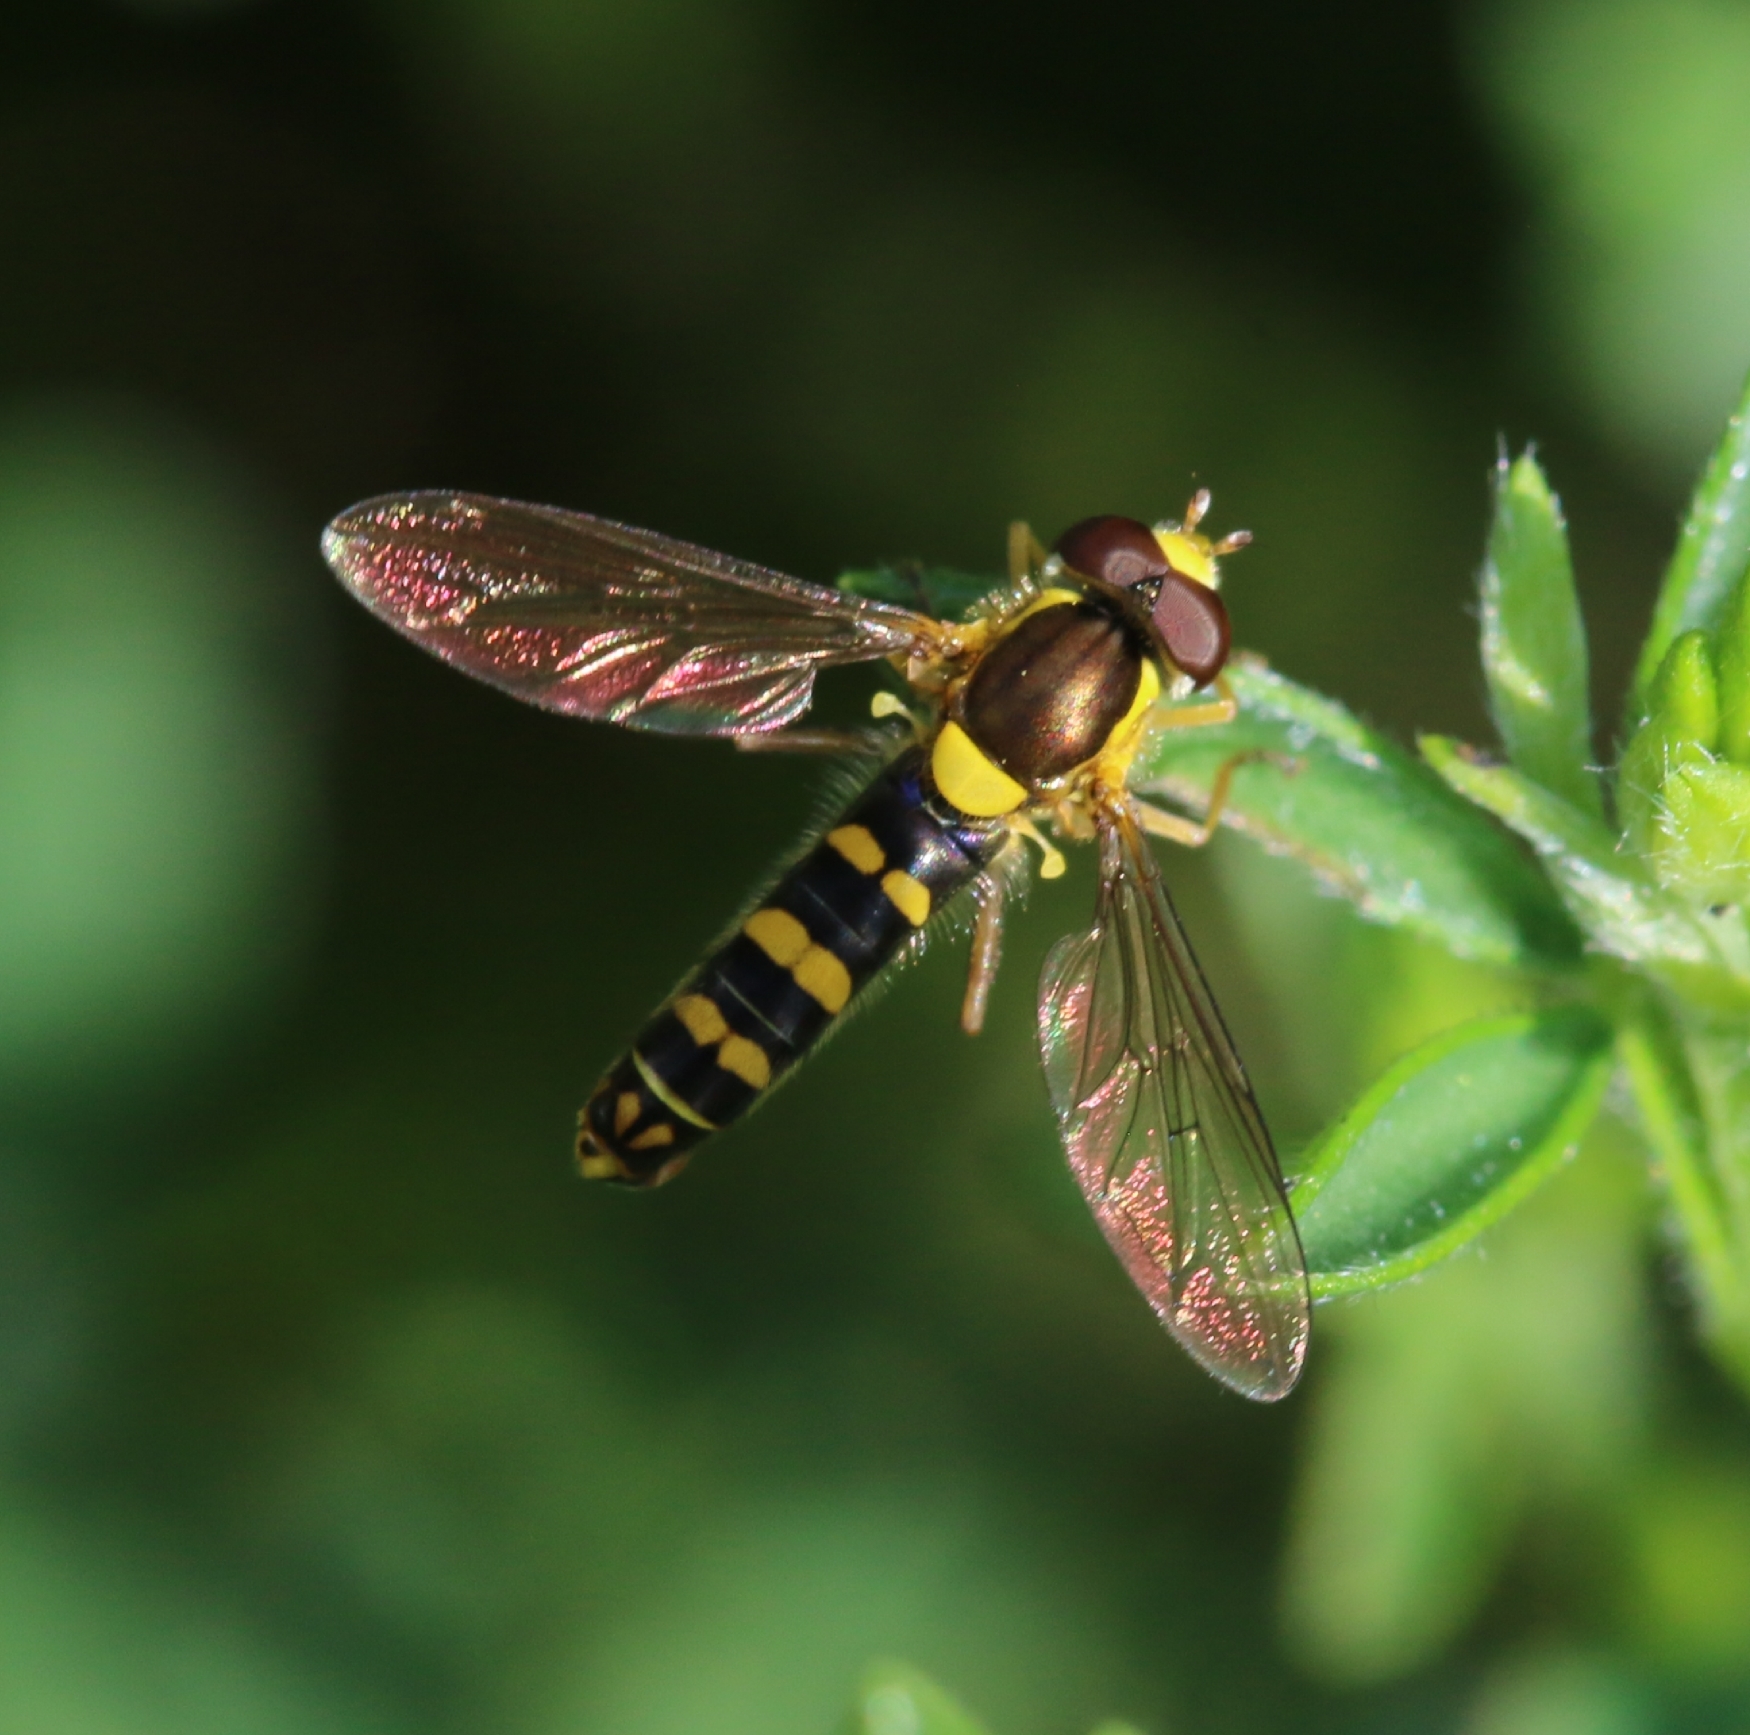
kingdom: Animalia
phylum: Arthropoda
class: Insecta
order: Diptera
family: Syrphidae
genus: Sphaerophoria
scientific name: Sphaerophoria
